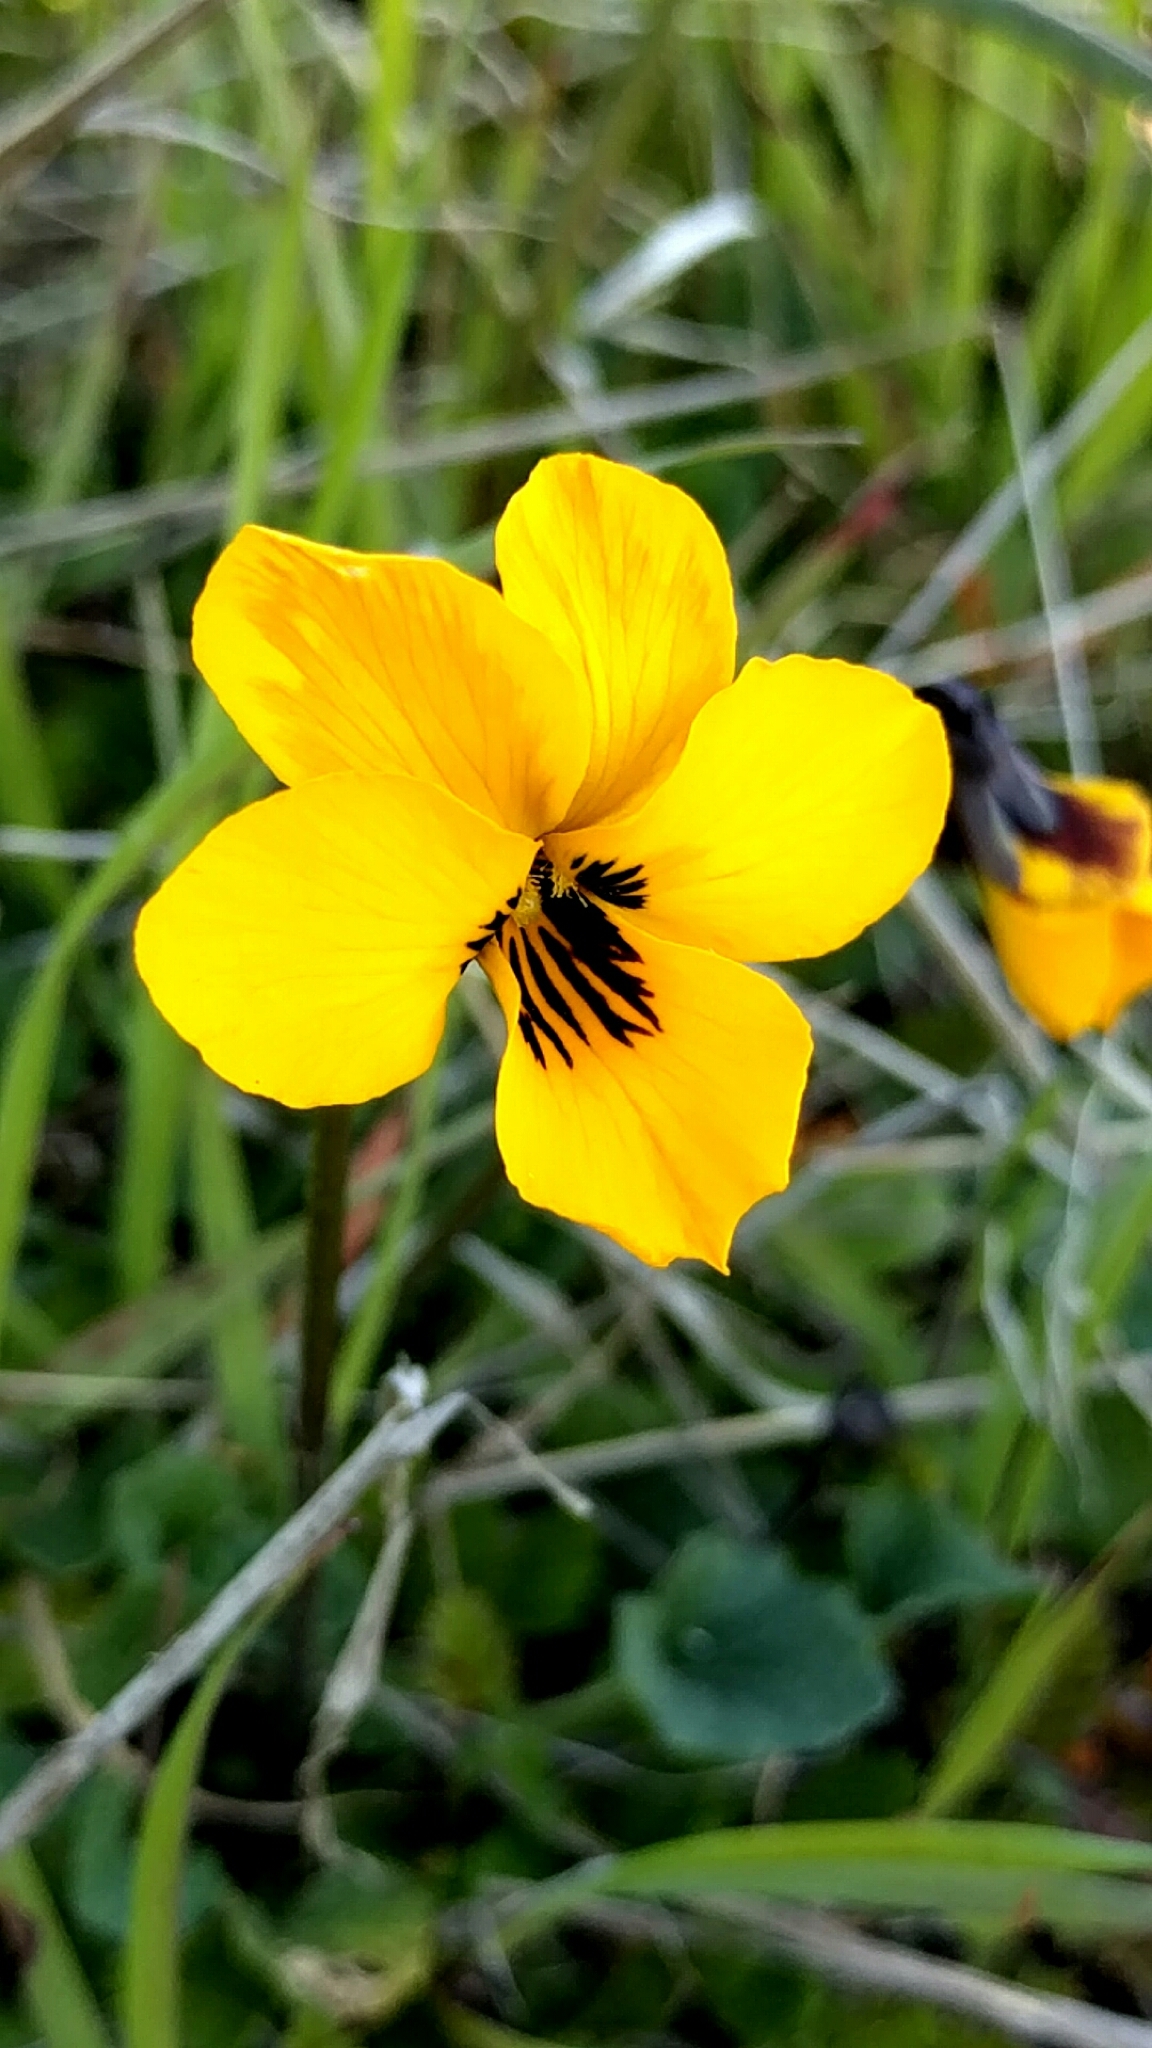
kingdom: Plantae
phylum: Tracheophyta
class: Magnoliopsida
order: Malpighiales
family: Violaceae
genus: Viola
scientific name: Viola pedunculata
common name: California golden violet
